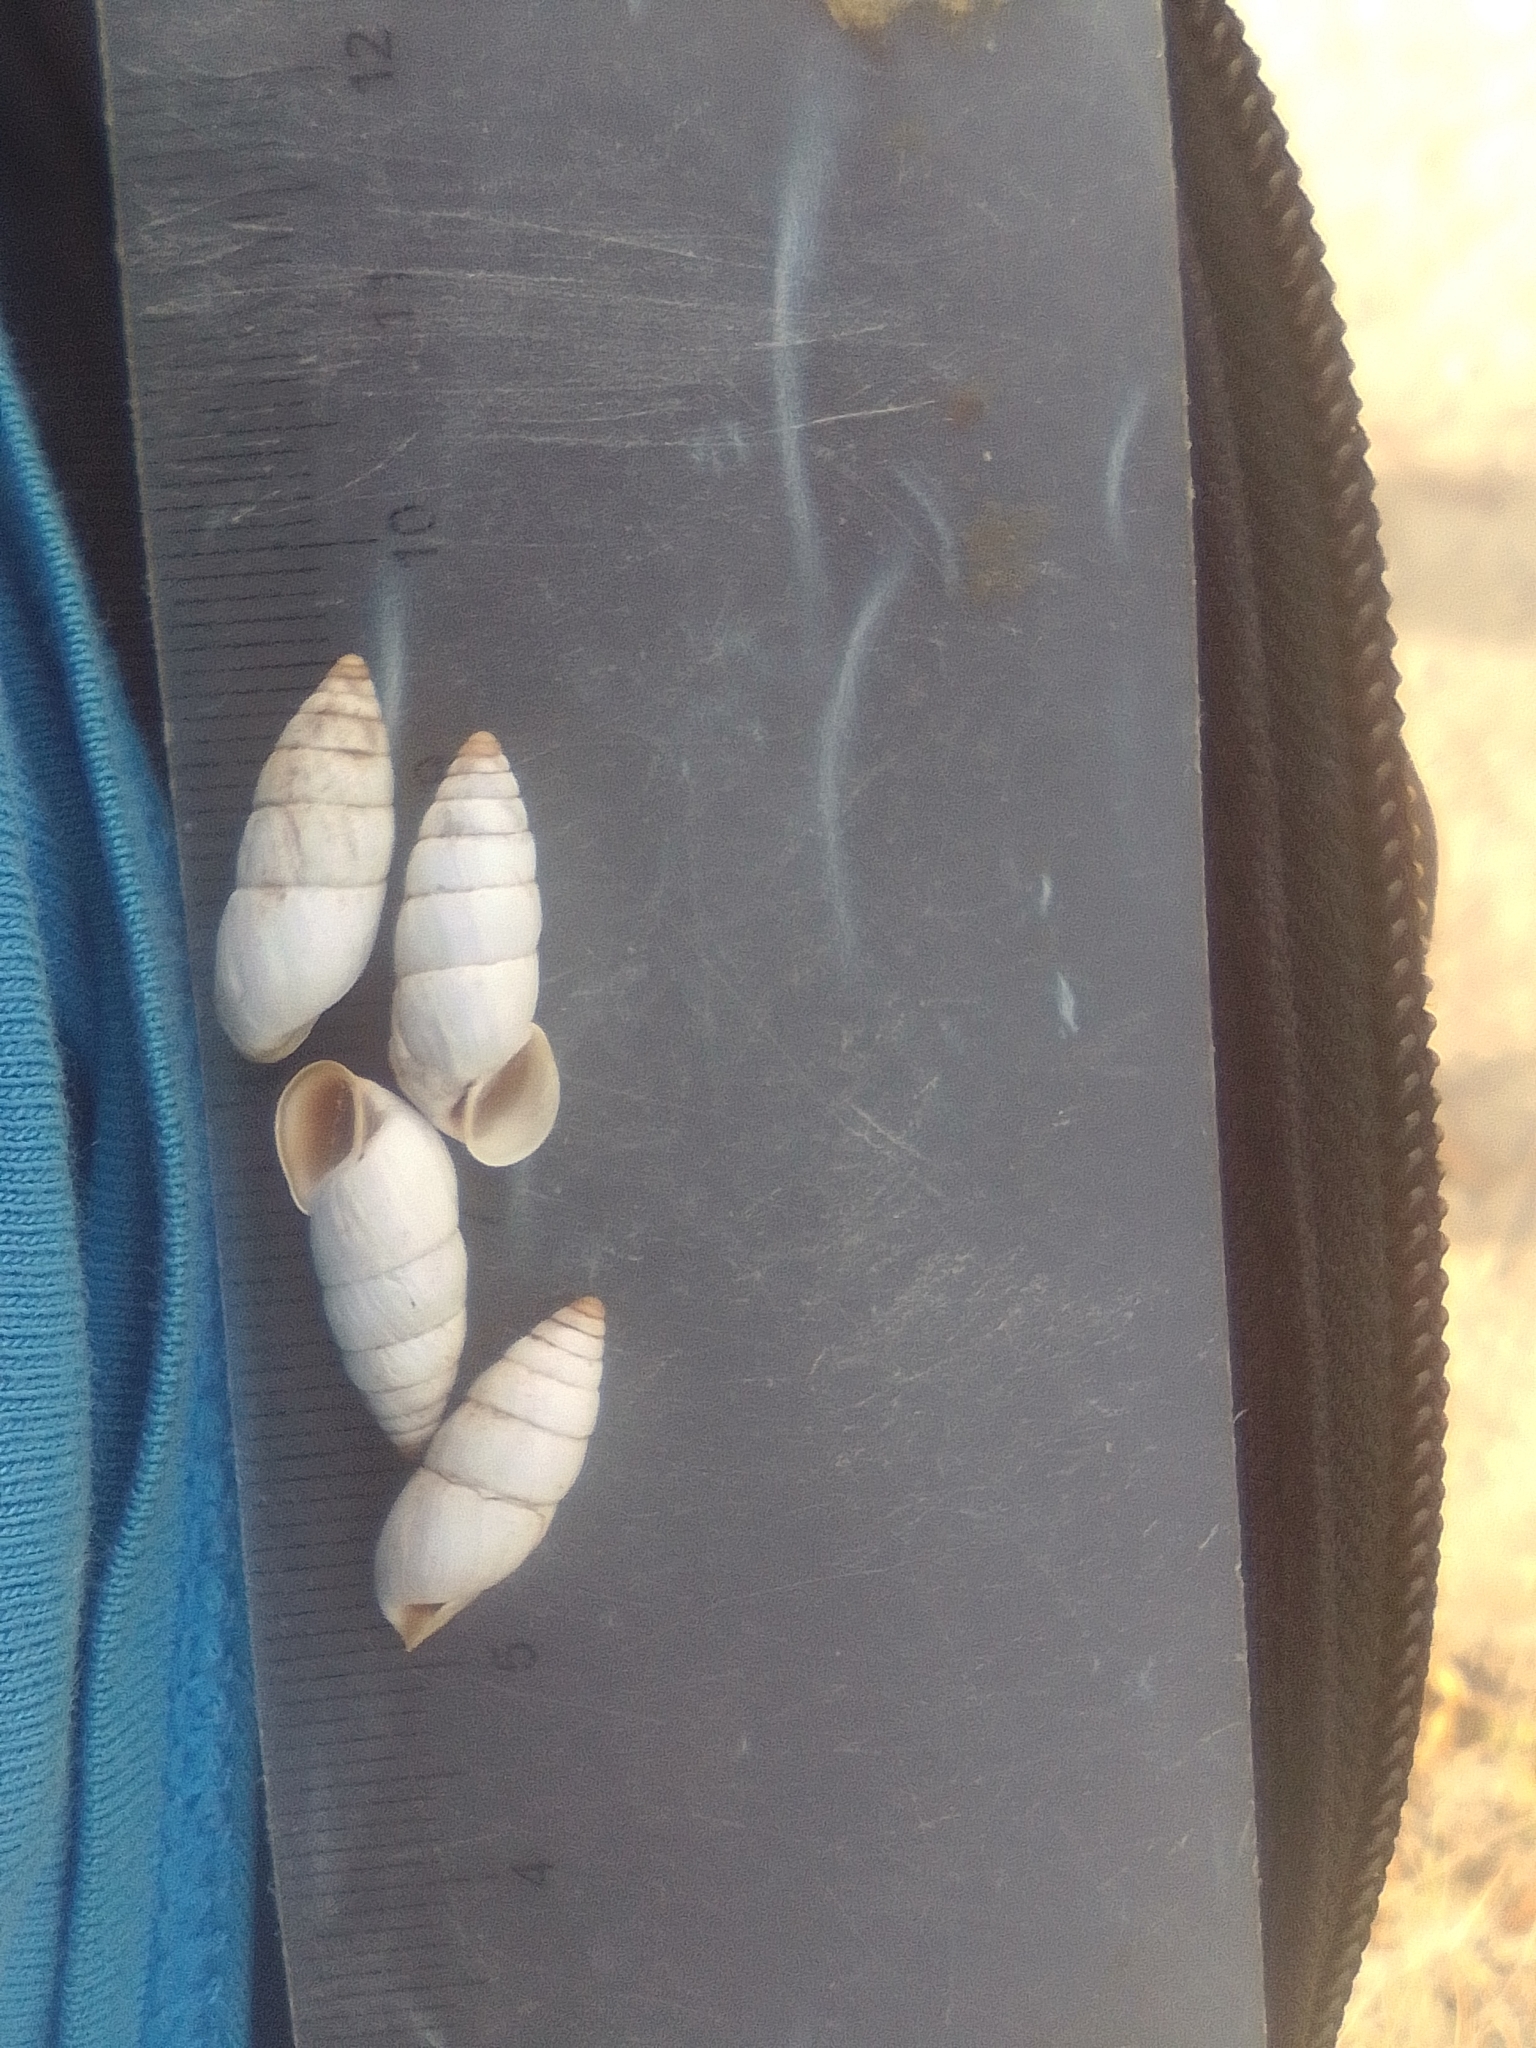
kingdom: Animalia
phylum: Mollusca
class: Gastropoda
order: Stylommatophora
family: Enidae
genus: Brephulopsis
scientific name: Brephulopsis cylindrica
